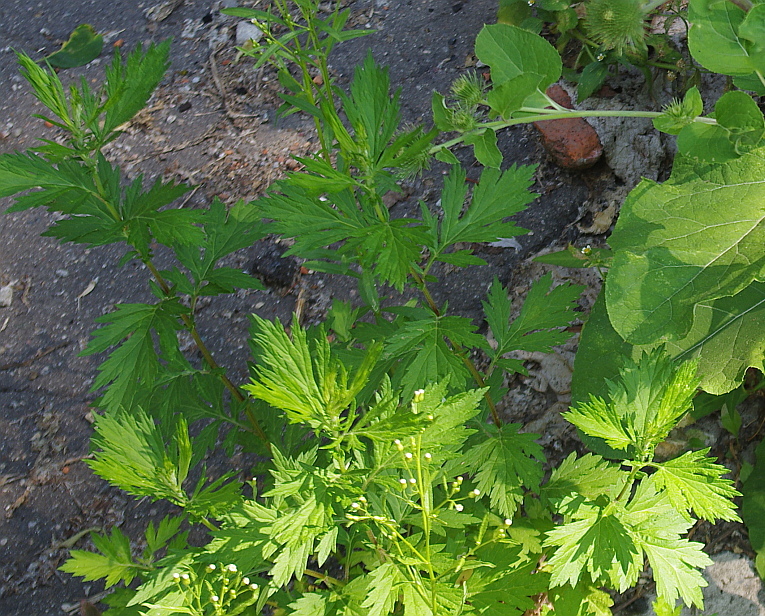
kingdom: Plantae
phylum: Tracheophyta
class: Magnoliopsida
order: Asterales
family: Asteraceae
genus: Artemisia
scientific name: Artemisia vulgaris
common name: Mugwort
